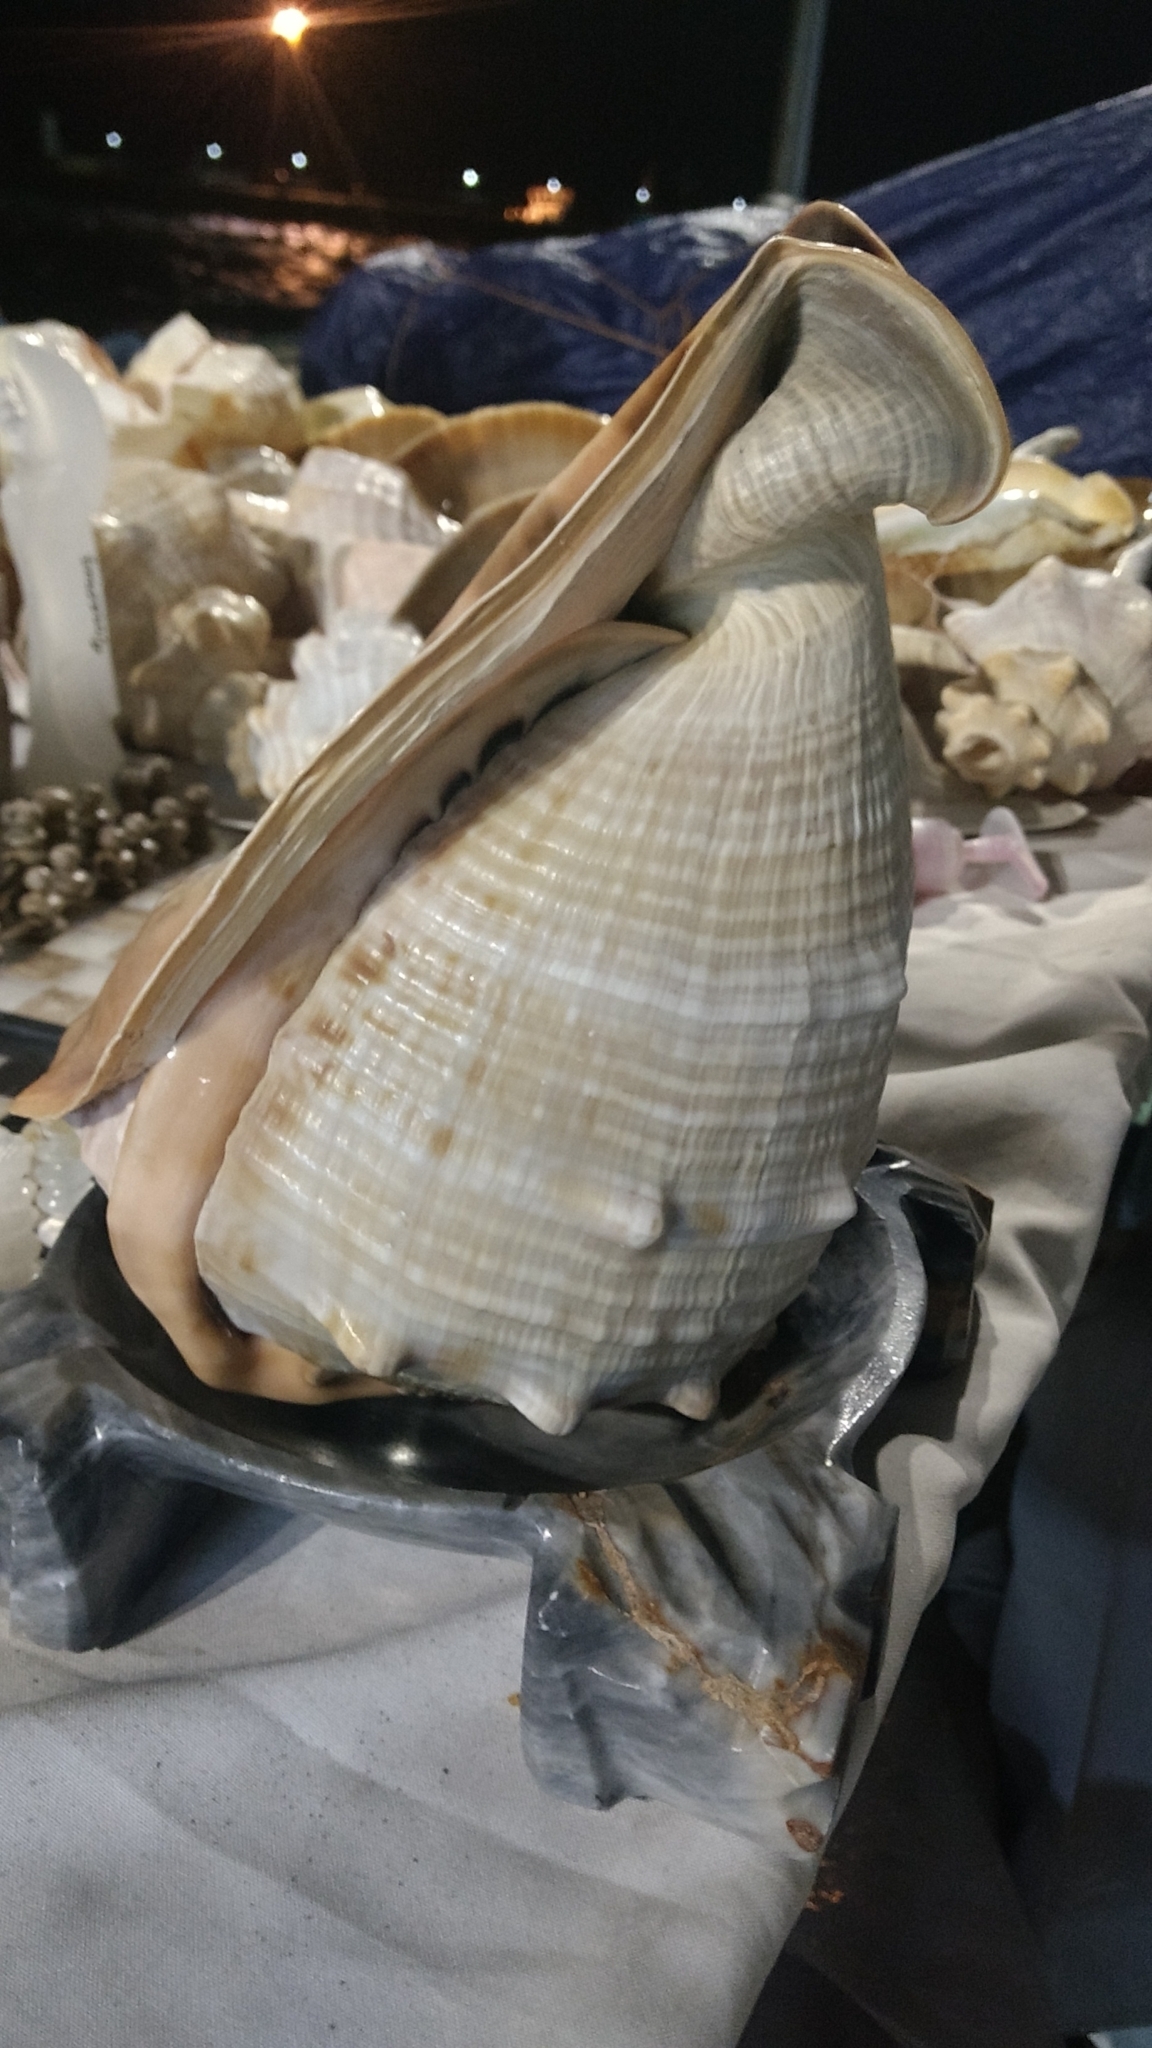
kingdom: Animalia
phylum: Mollusca
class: Gastropoda
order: Littorinimorpha
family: Cassidae
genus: Cassis
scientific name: Cassis madagascariensis
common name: Cameo helmet
